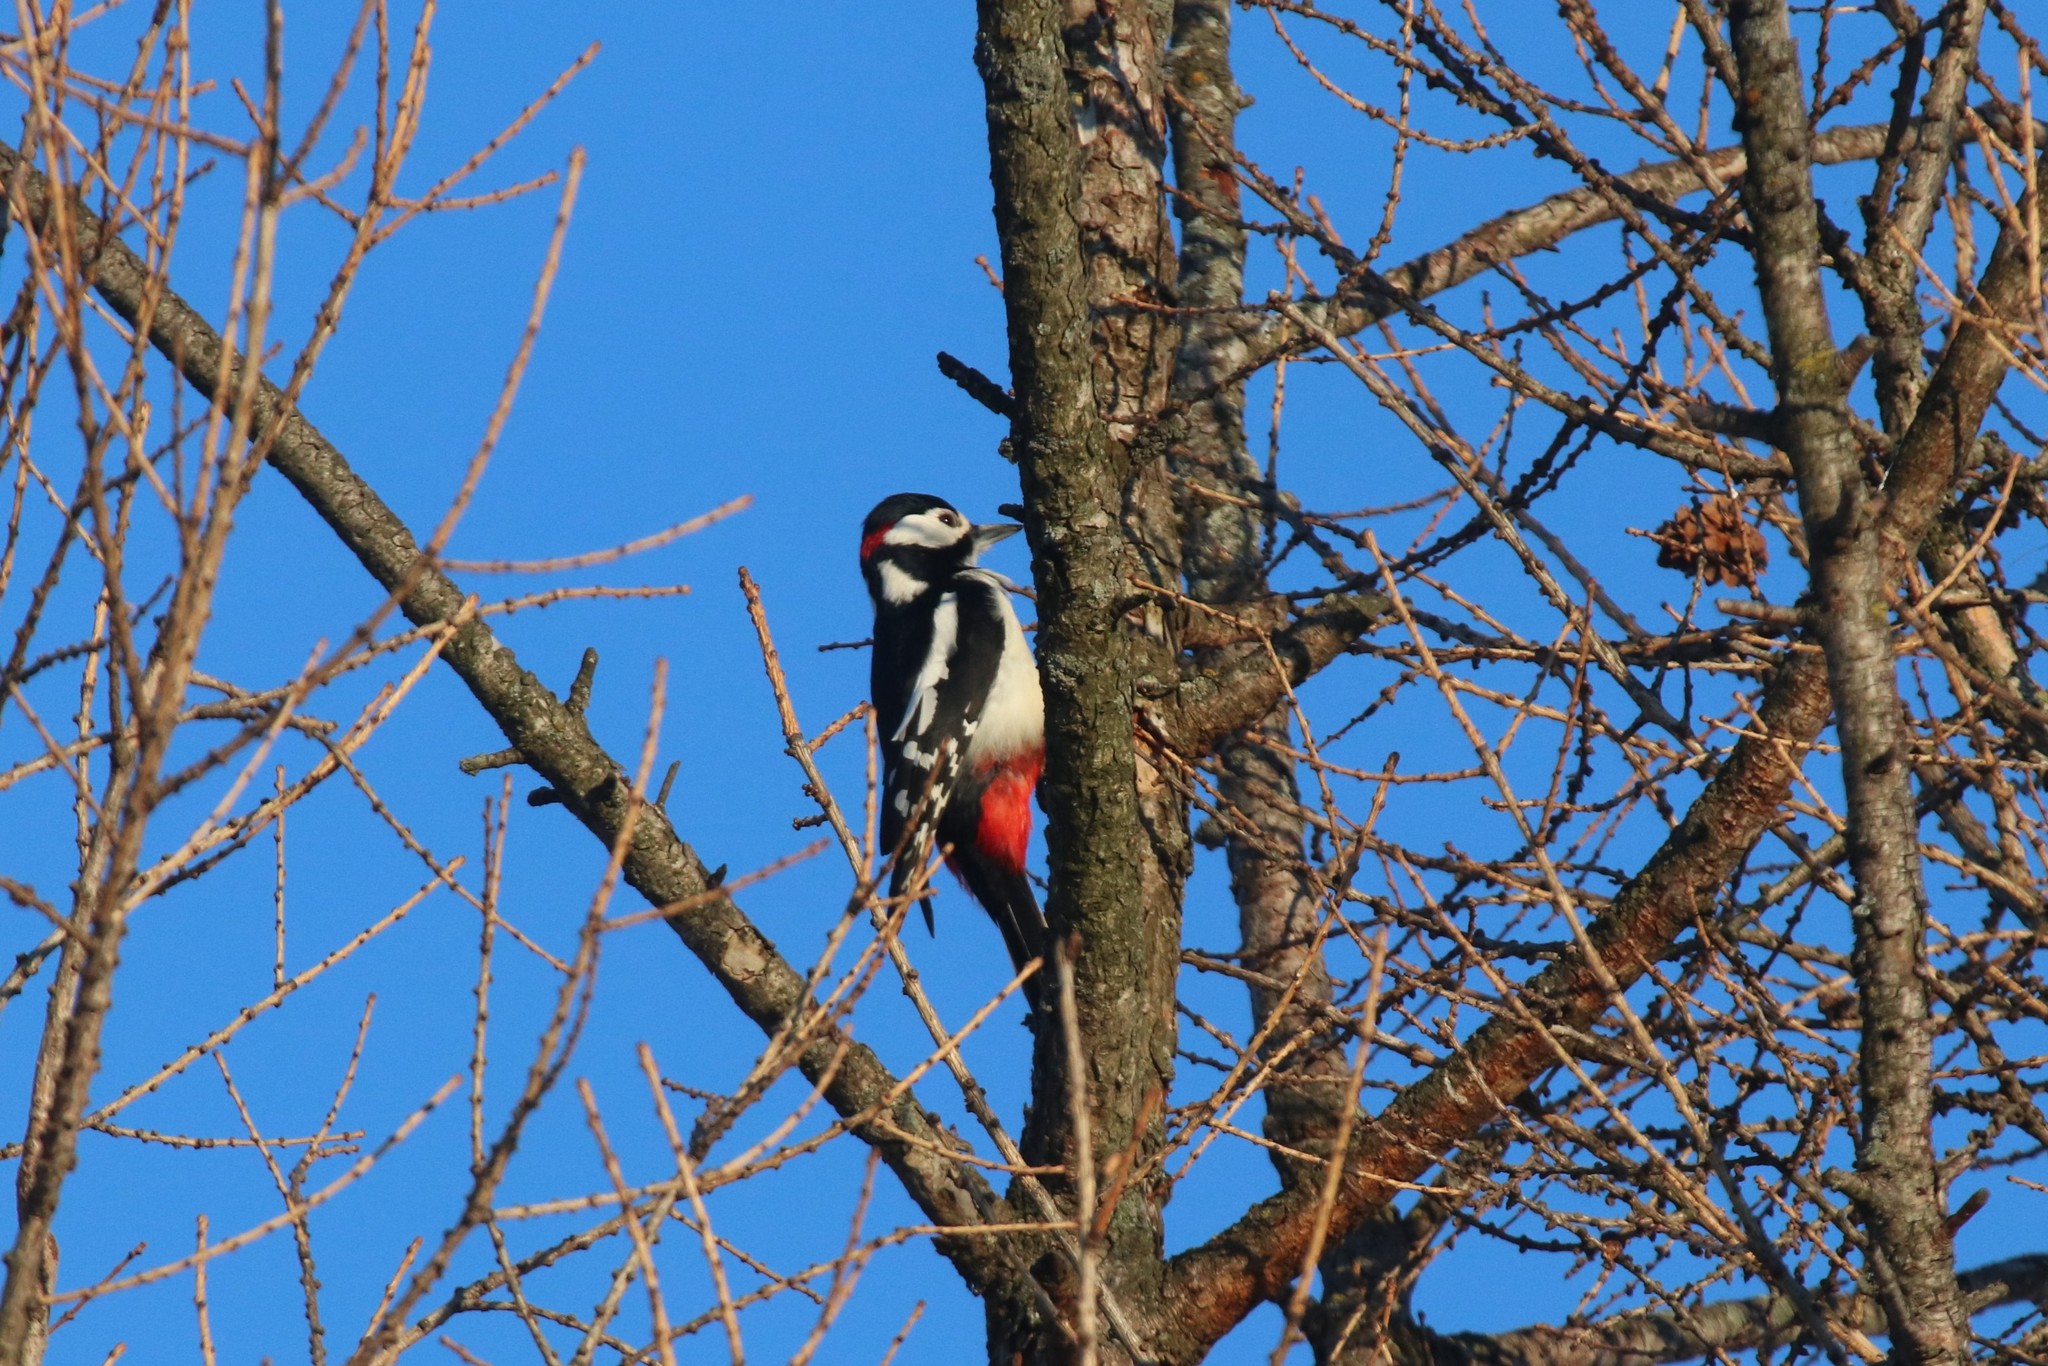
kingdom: Animalia
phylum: Chordata
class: Aves
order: Piciformes
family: Picidae
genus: Dendrocopos
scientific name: Dendrocopos major
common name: Great spotted woodpecker
